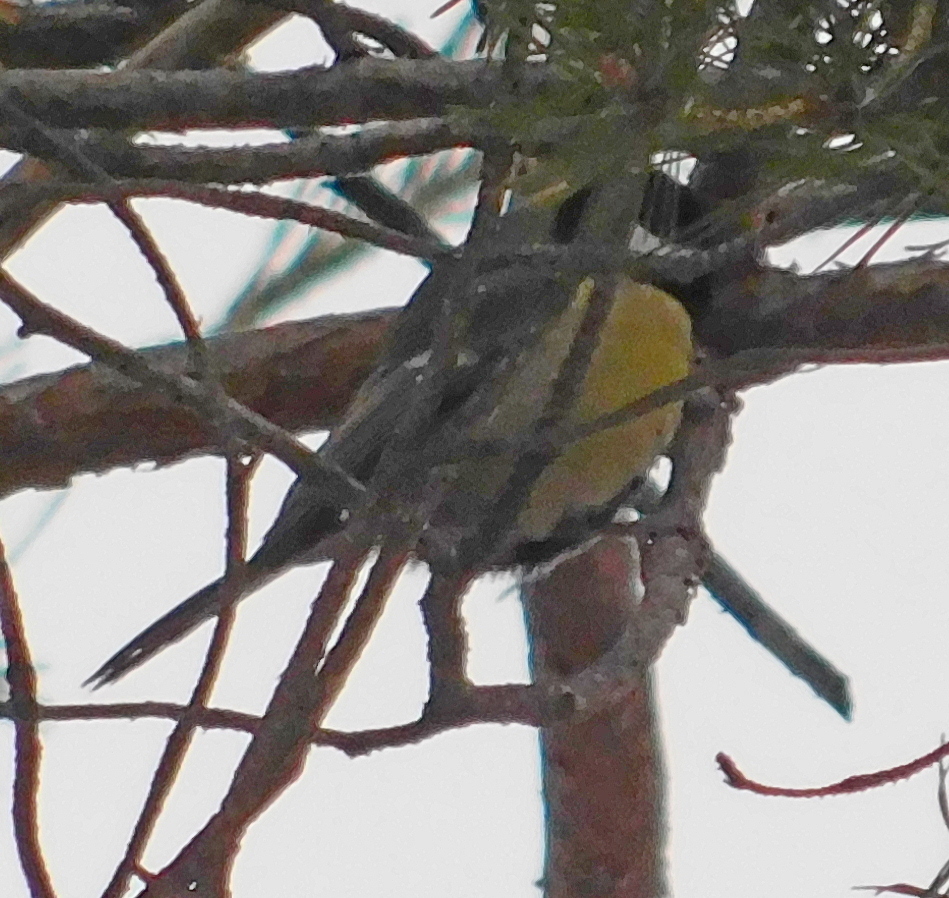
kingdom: Animalia
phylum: Chordata
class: Aves
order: Passeriformes
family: Paridae
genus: Parus
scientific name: Parus major
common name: Great tit
